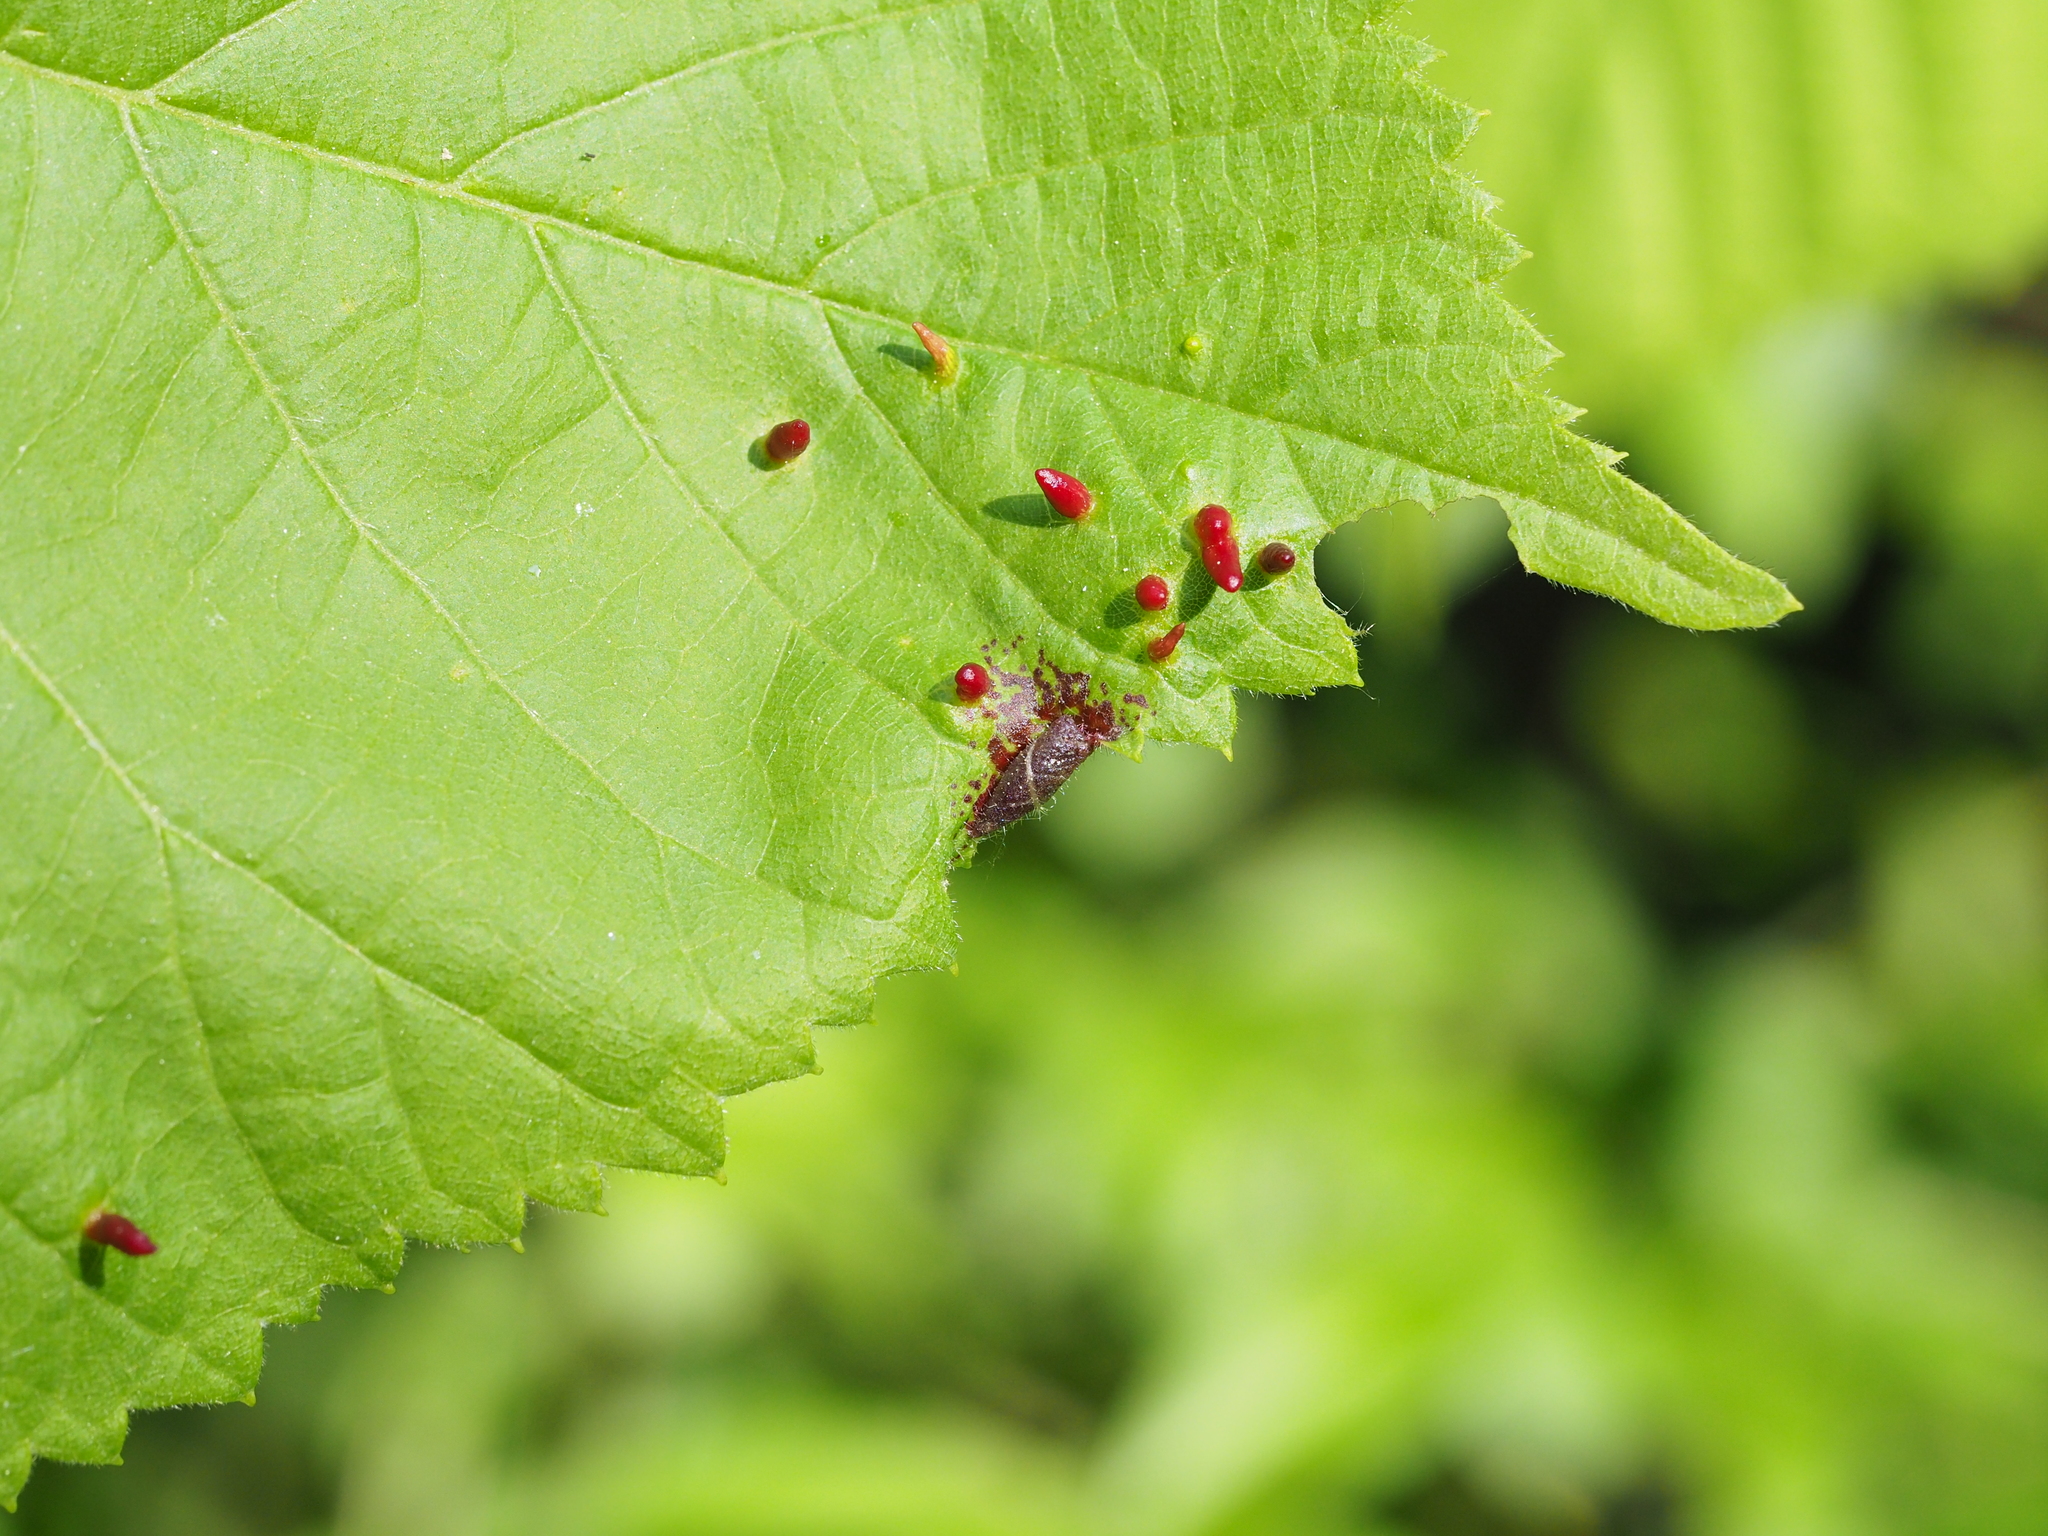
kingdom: Animalia
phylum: Arthropoda
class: Arachnida
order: Trombidiformes
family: Eriophyidae
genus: Eriophyes
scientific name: Eriophyes tiliae
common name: Red nail gall mite
